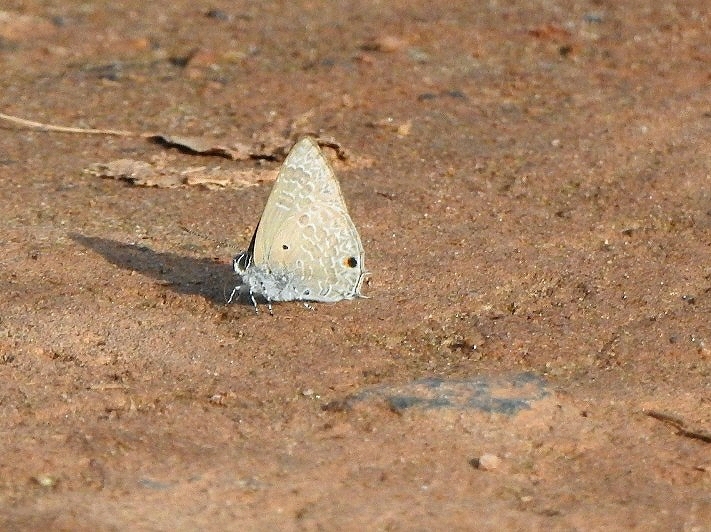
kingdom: Animalia
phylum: Arthropoda
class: Insecta
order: Lepidoptera
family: Lycaenidae
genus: Anthene
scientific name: Anthene lycaenina
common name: Pointed ciliate blue
